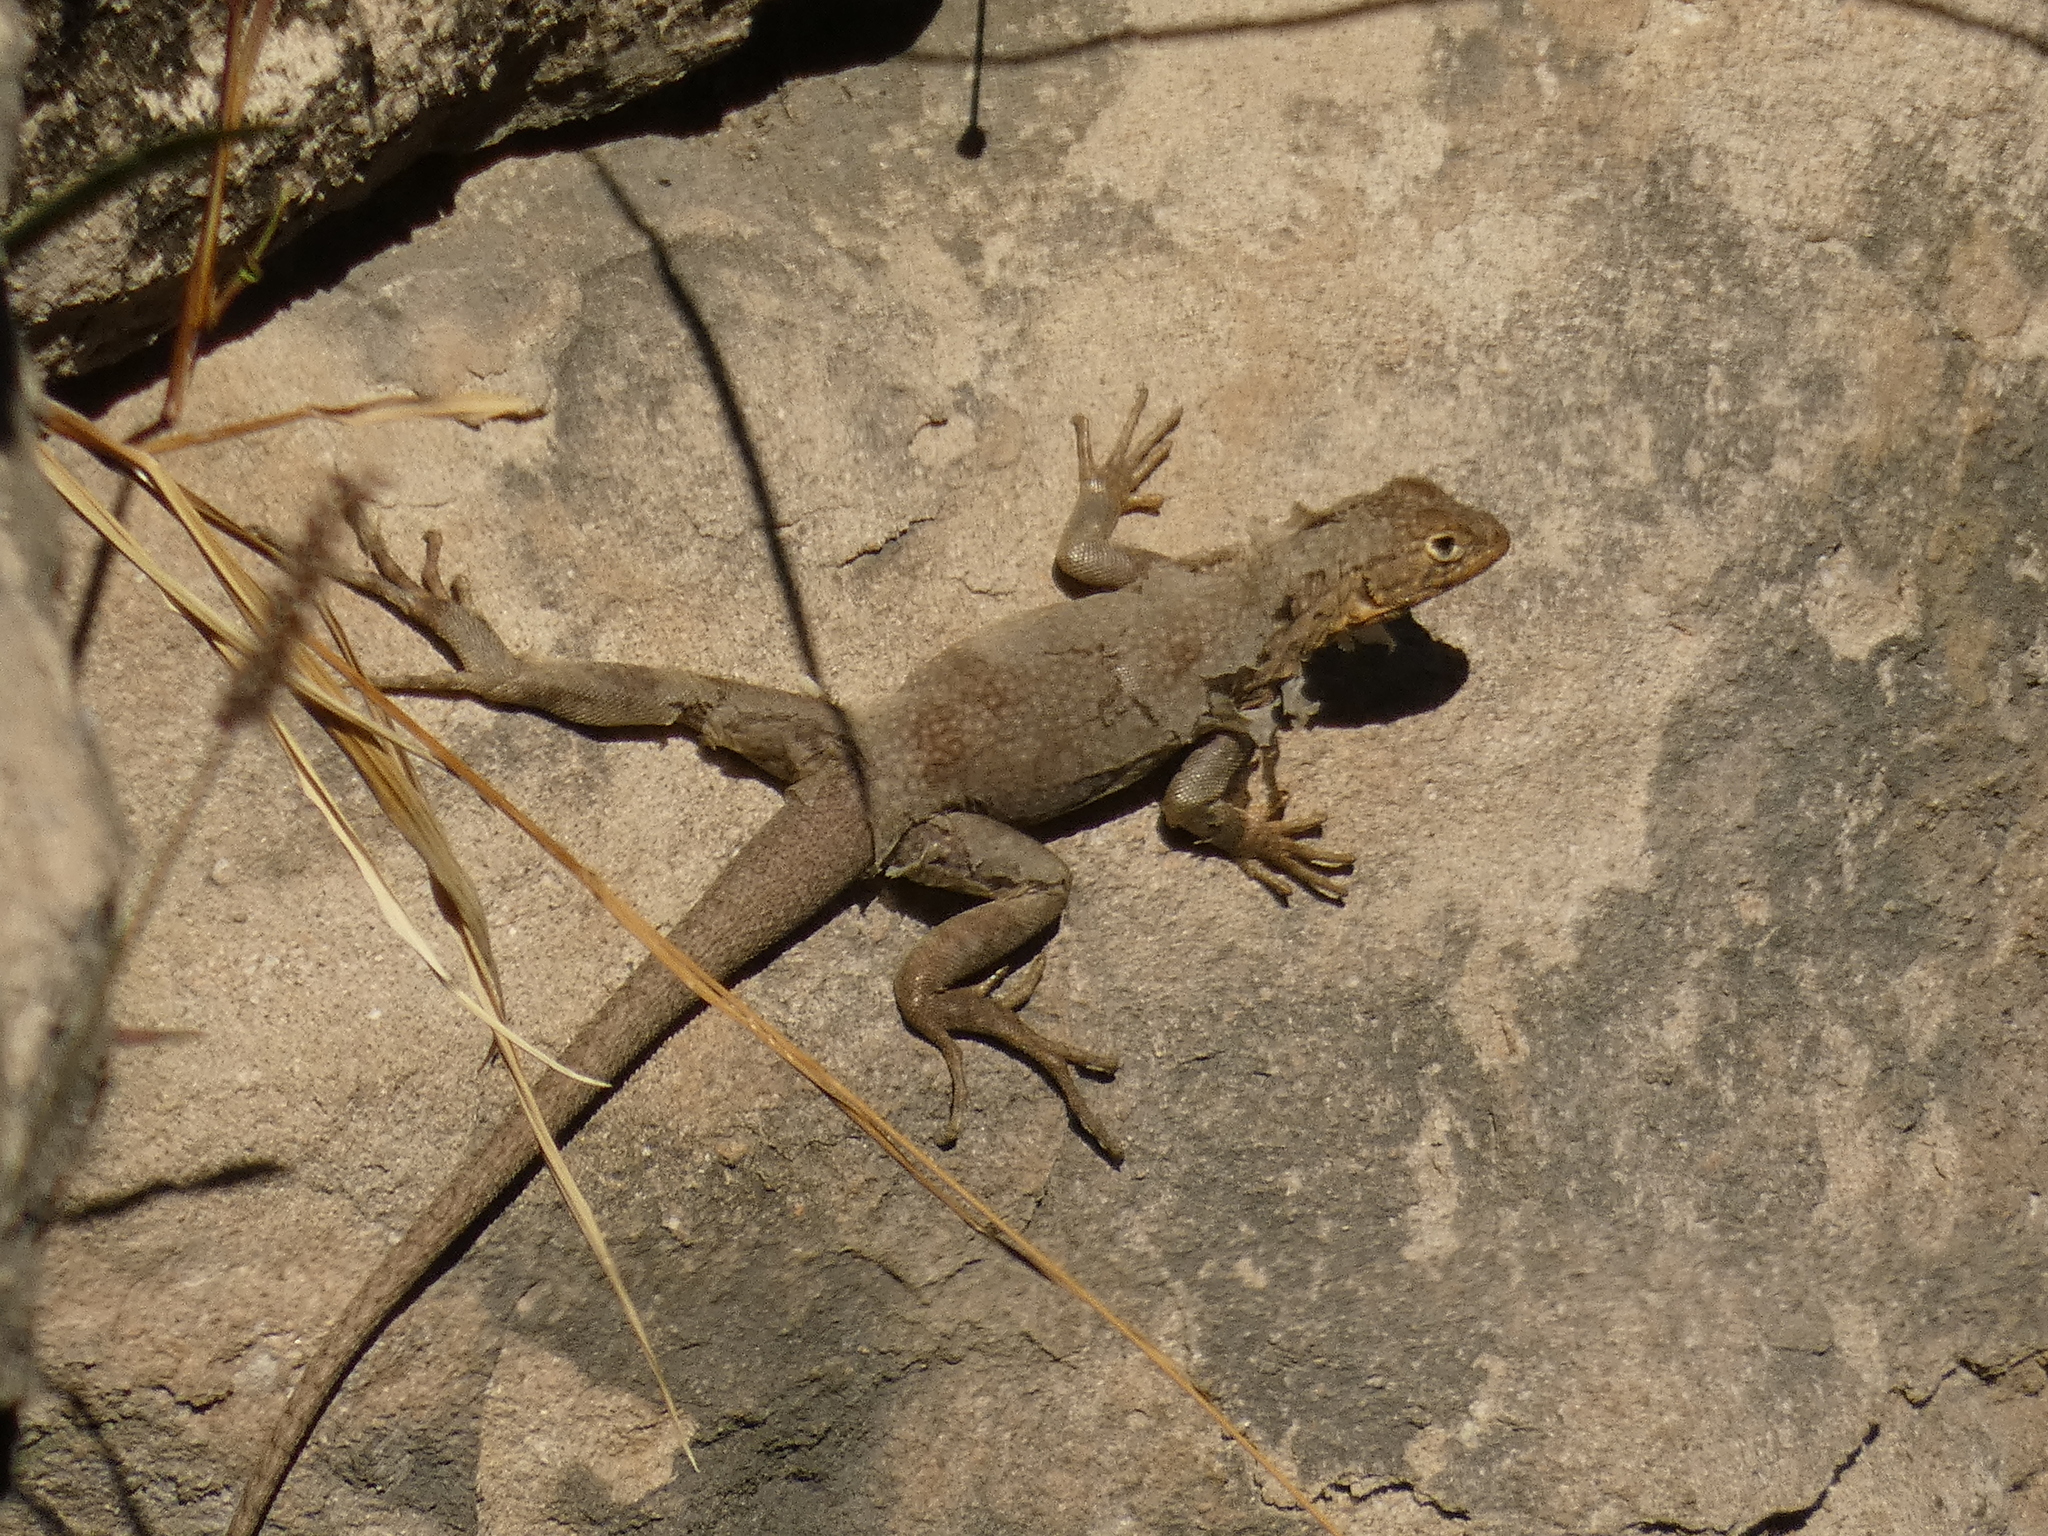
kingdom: Animalia
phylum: Chordata
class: Squamata
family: Tropiduridae
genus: Microlophus
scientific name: Microlophus theresioides
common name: Small pacific iguana
